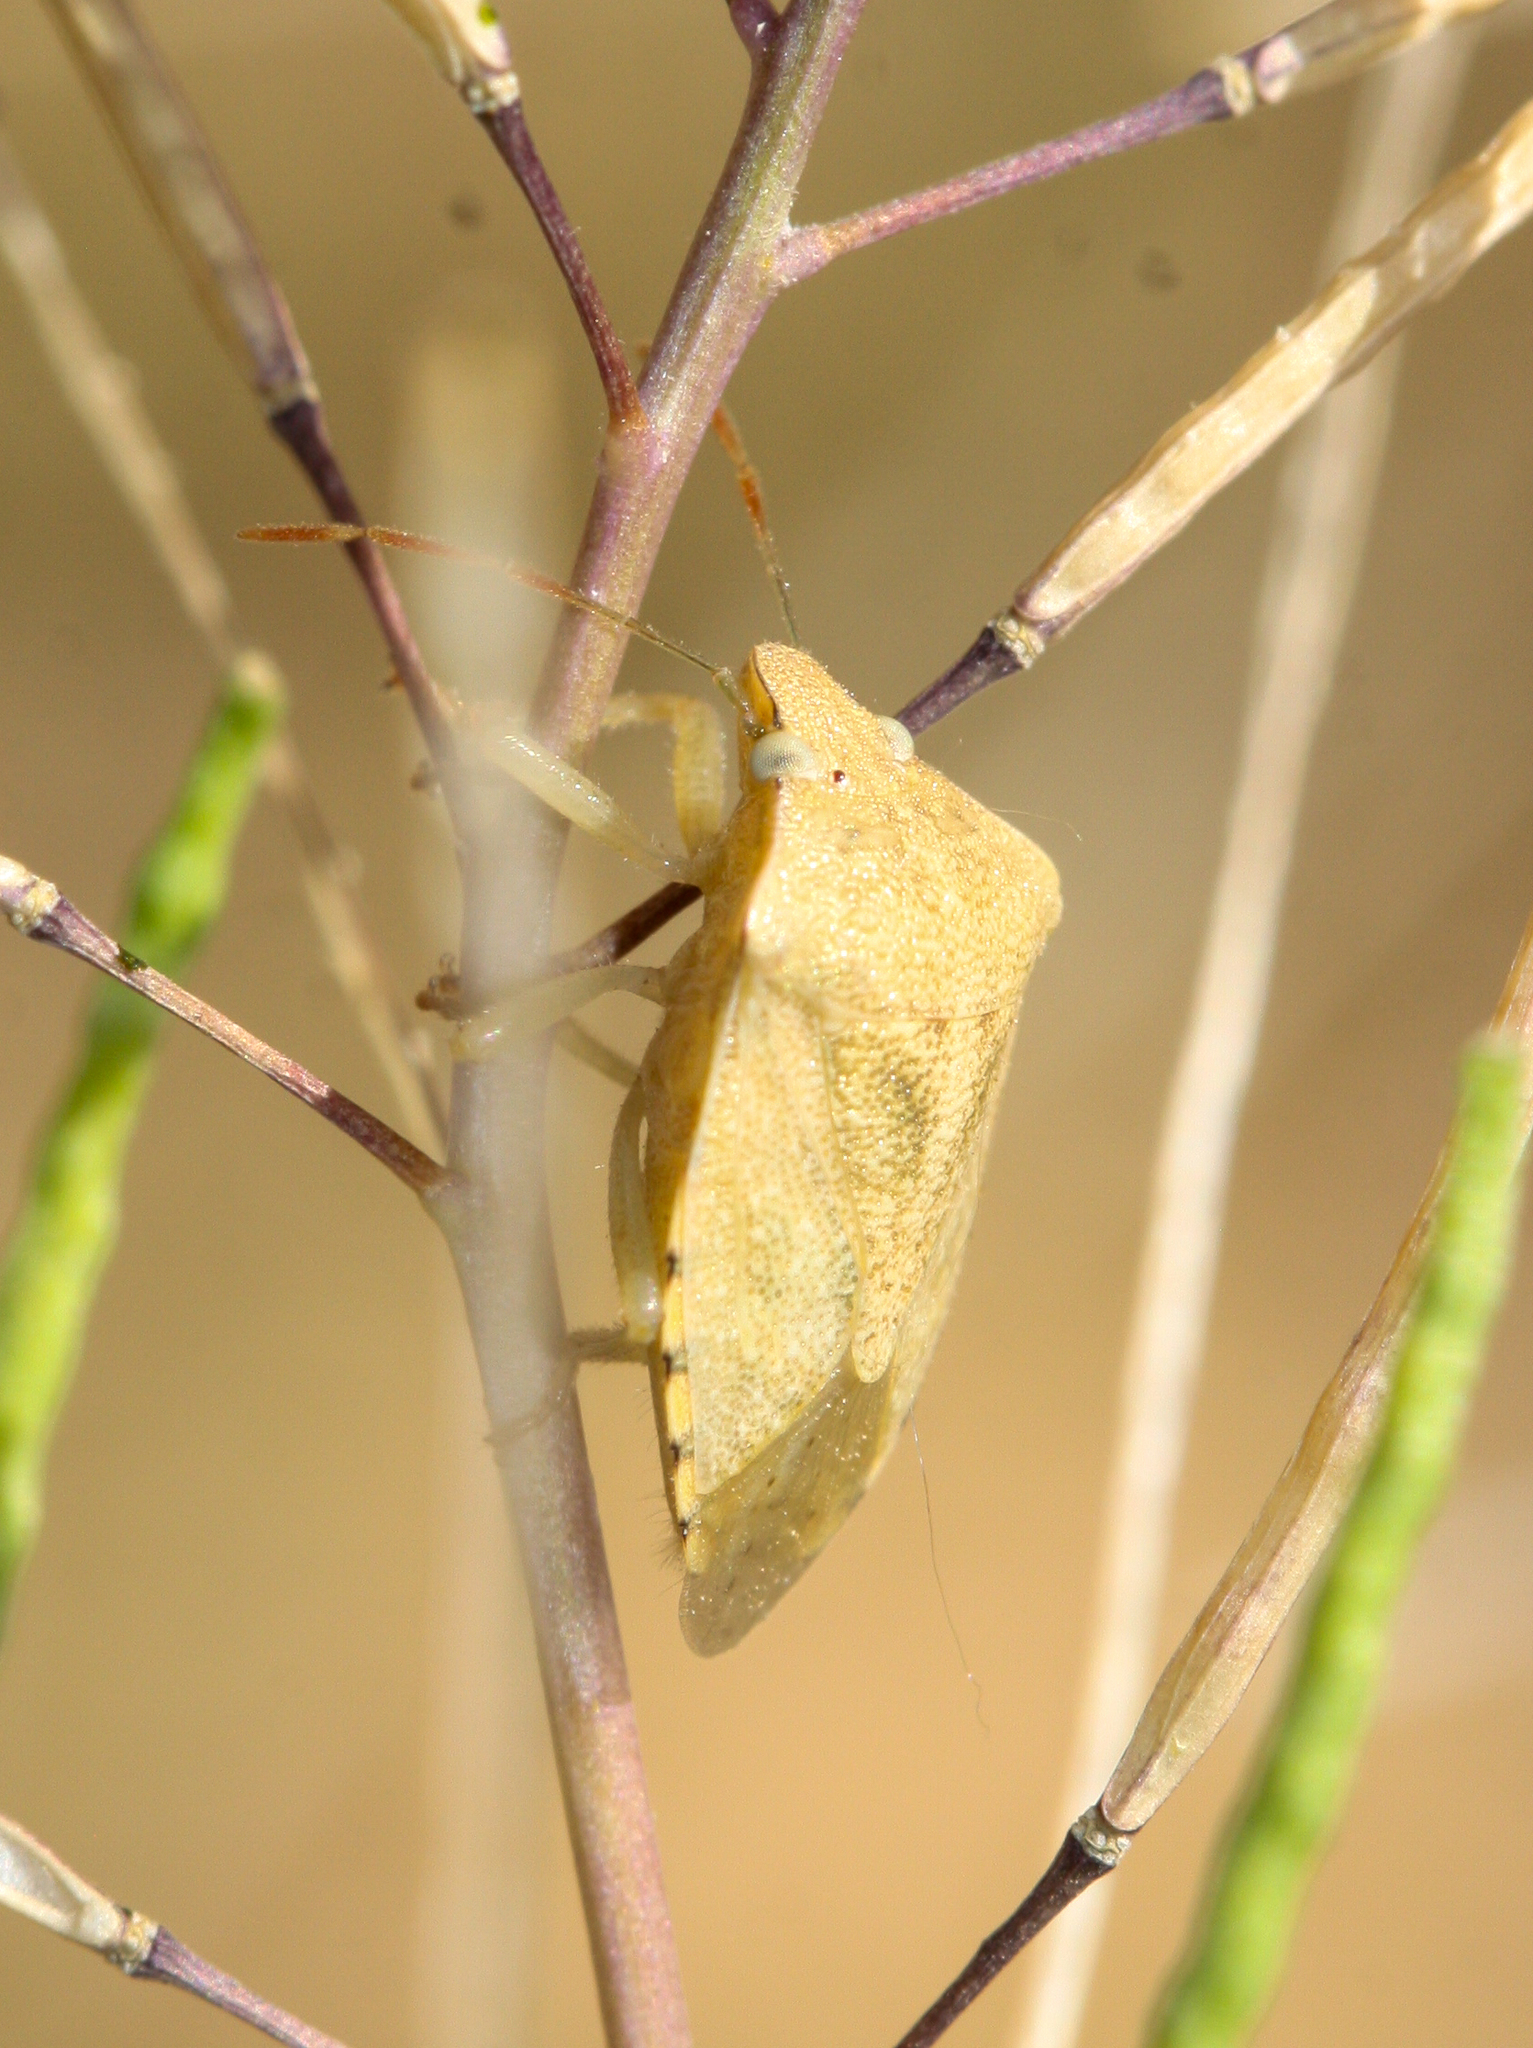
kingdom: Animalia
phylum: Arthropoda
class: Insecta
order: Hemiptera
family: Pentatomidae
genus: Thyanta
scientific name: Thyanta accerra
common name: Stink bug
